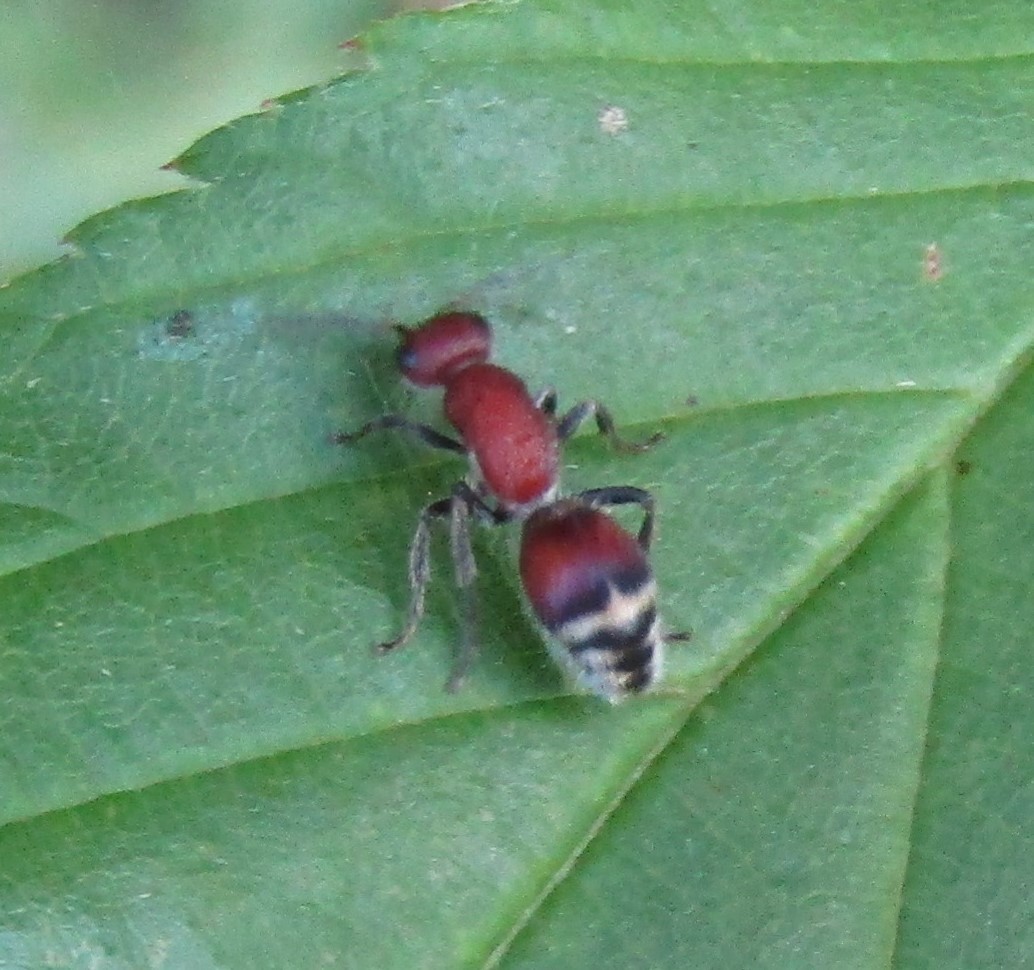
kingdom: Animalia
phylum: Arthropoda
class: Insecta
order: Hymenoptera
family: Mutillidae
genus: Timulla
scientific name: Timulla
